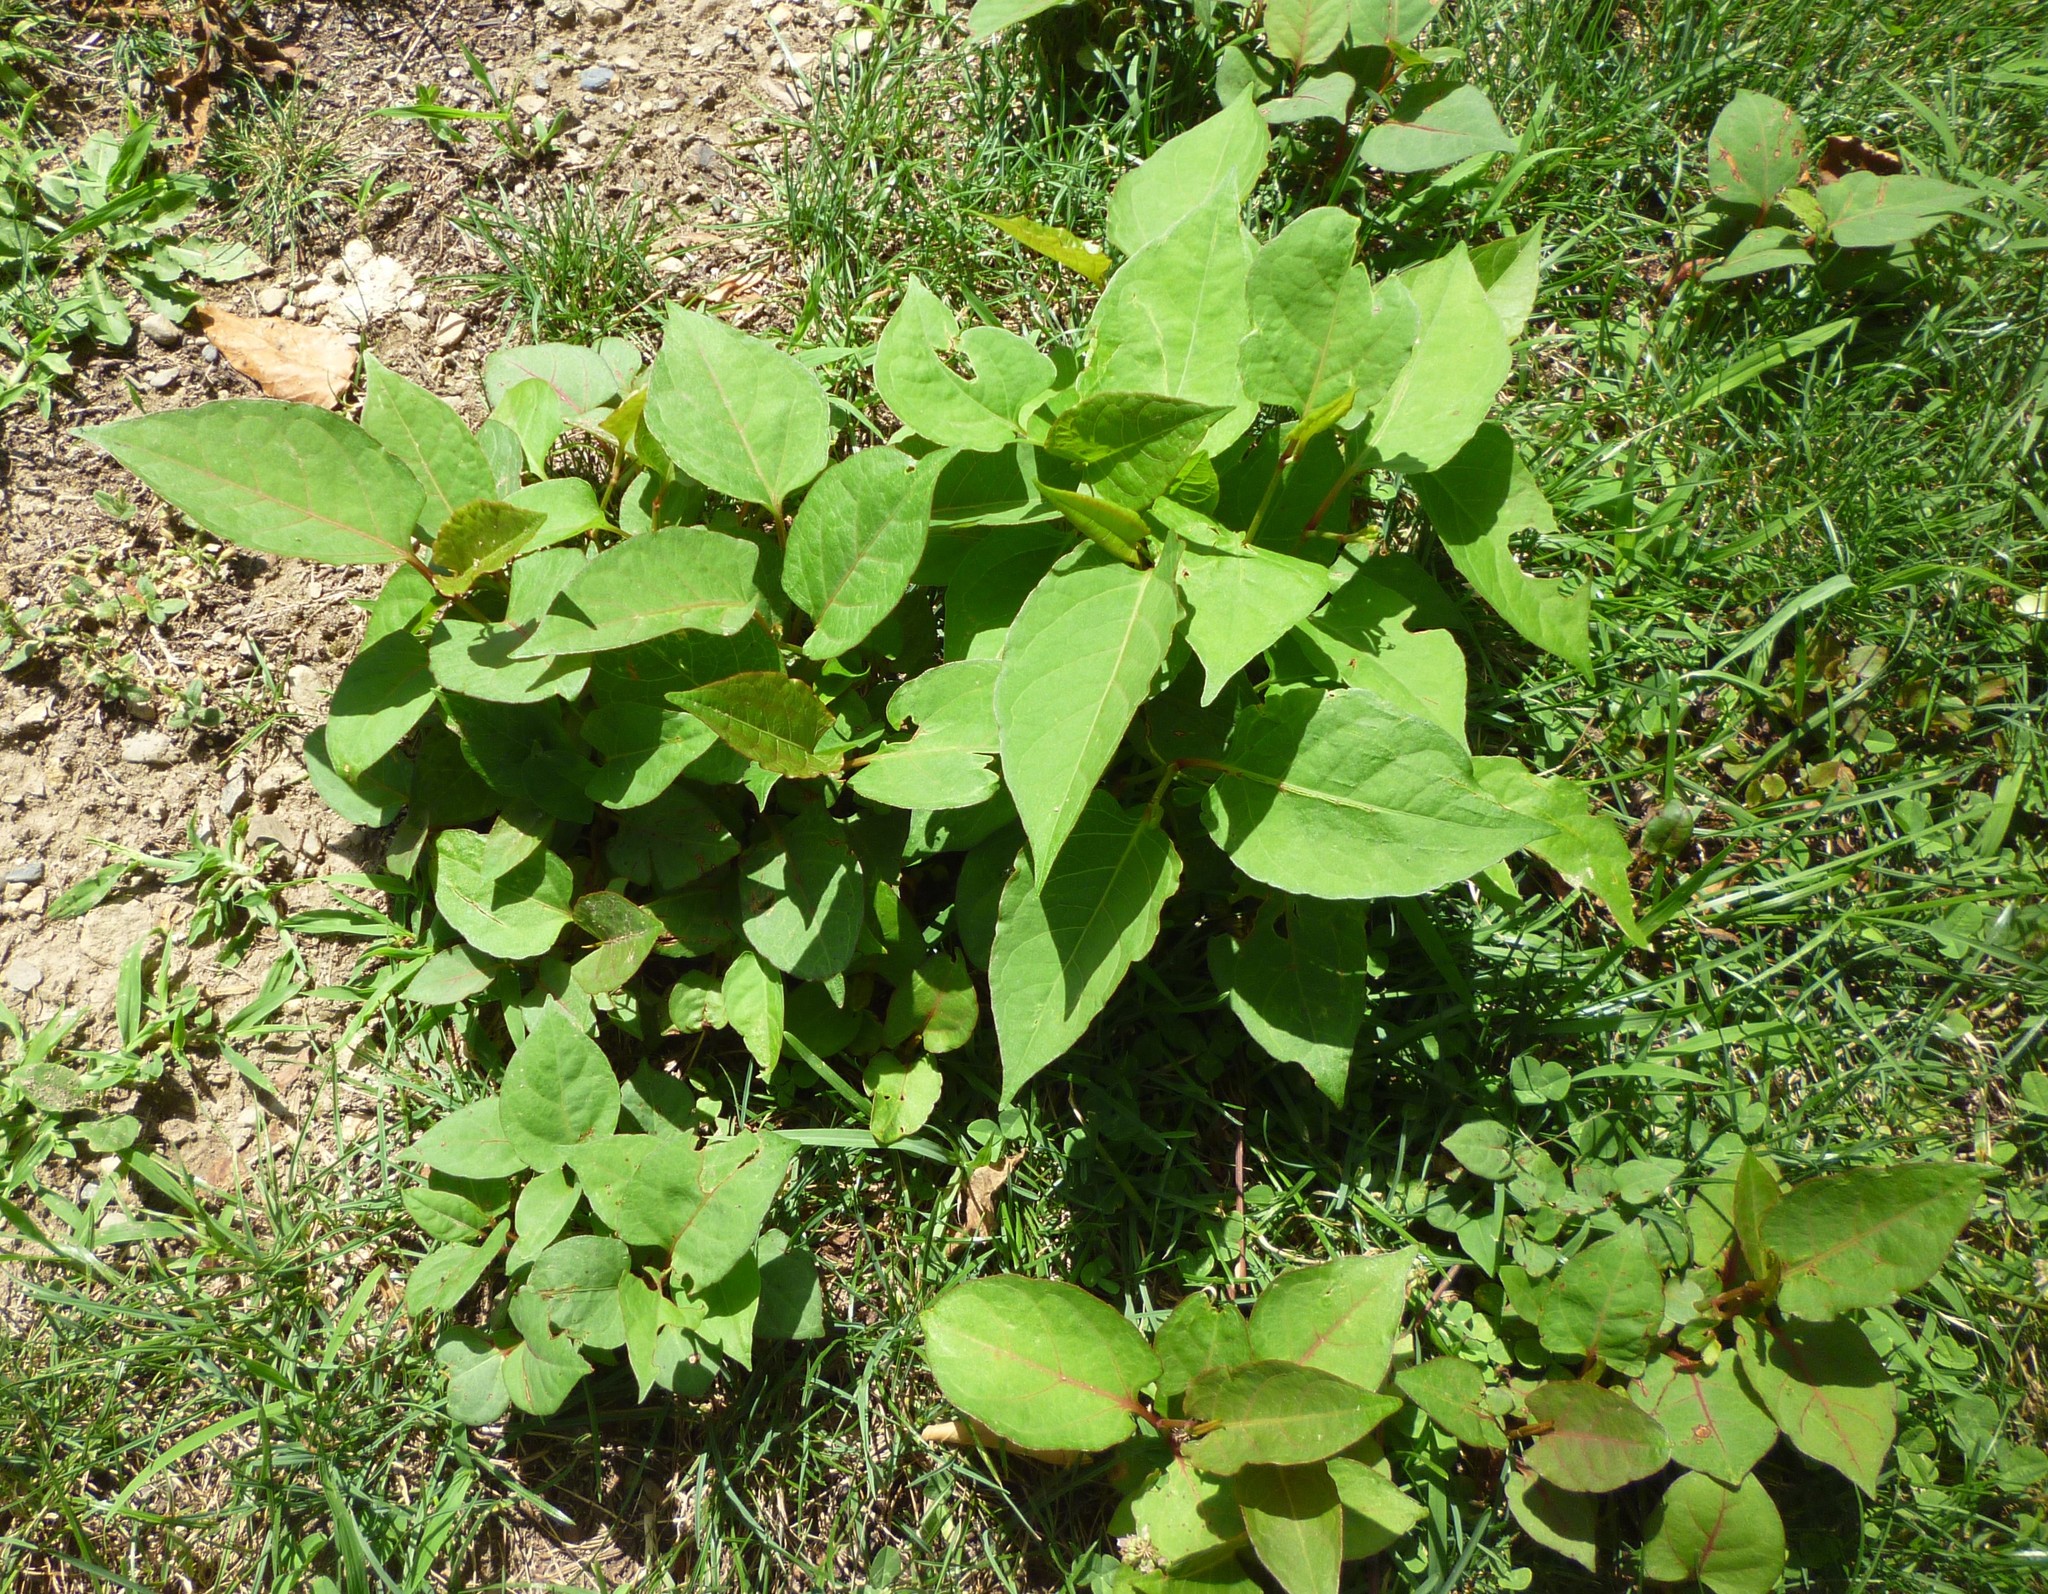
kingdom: Plantae
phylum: Tracheophyta
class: Magnoliopsida
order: Caryophyllales
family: Polygonaceae
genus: Reynoutria
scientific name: Reynoutria
